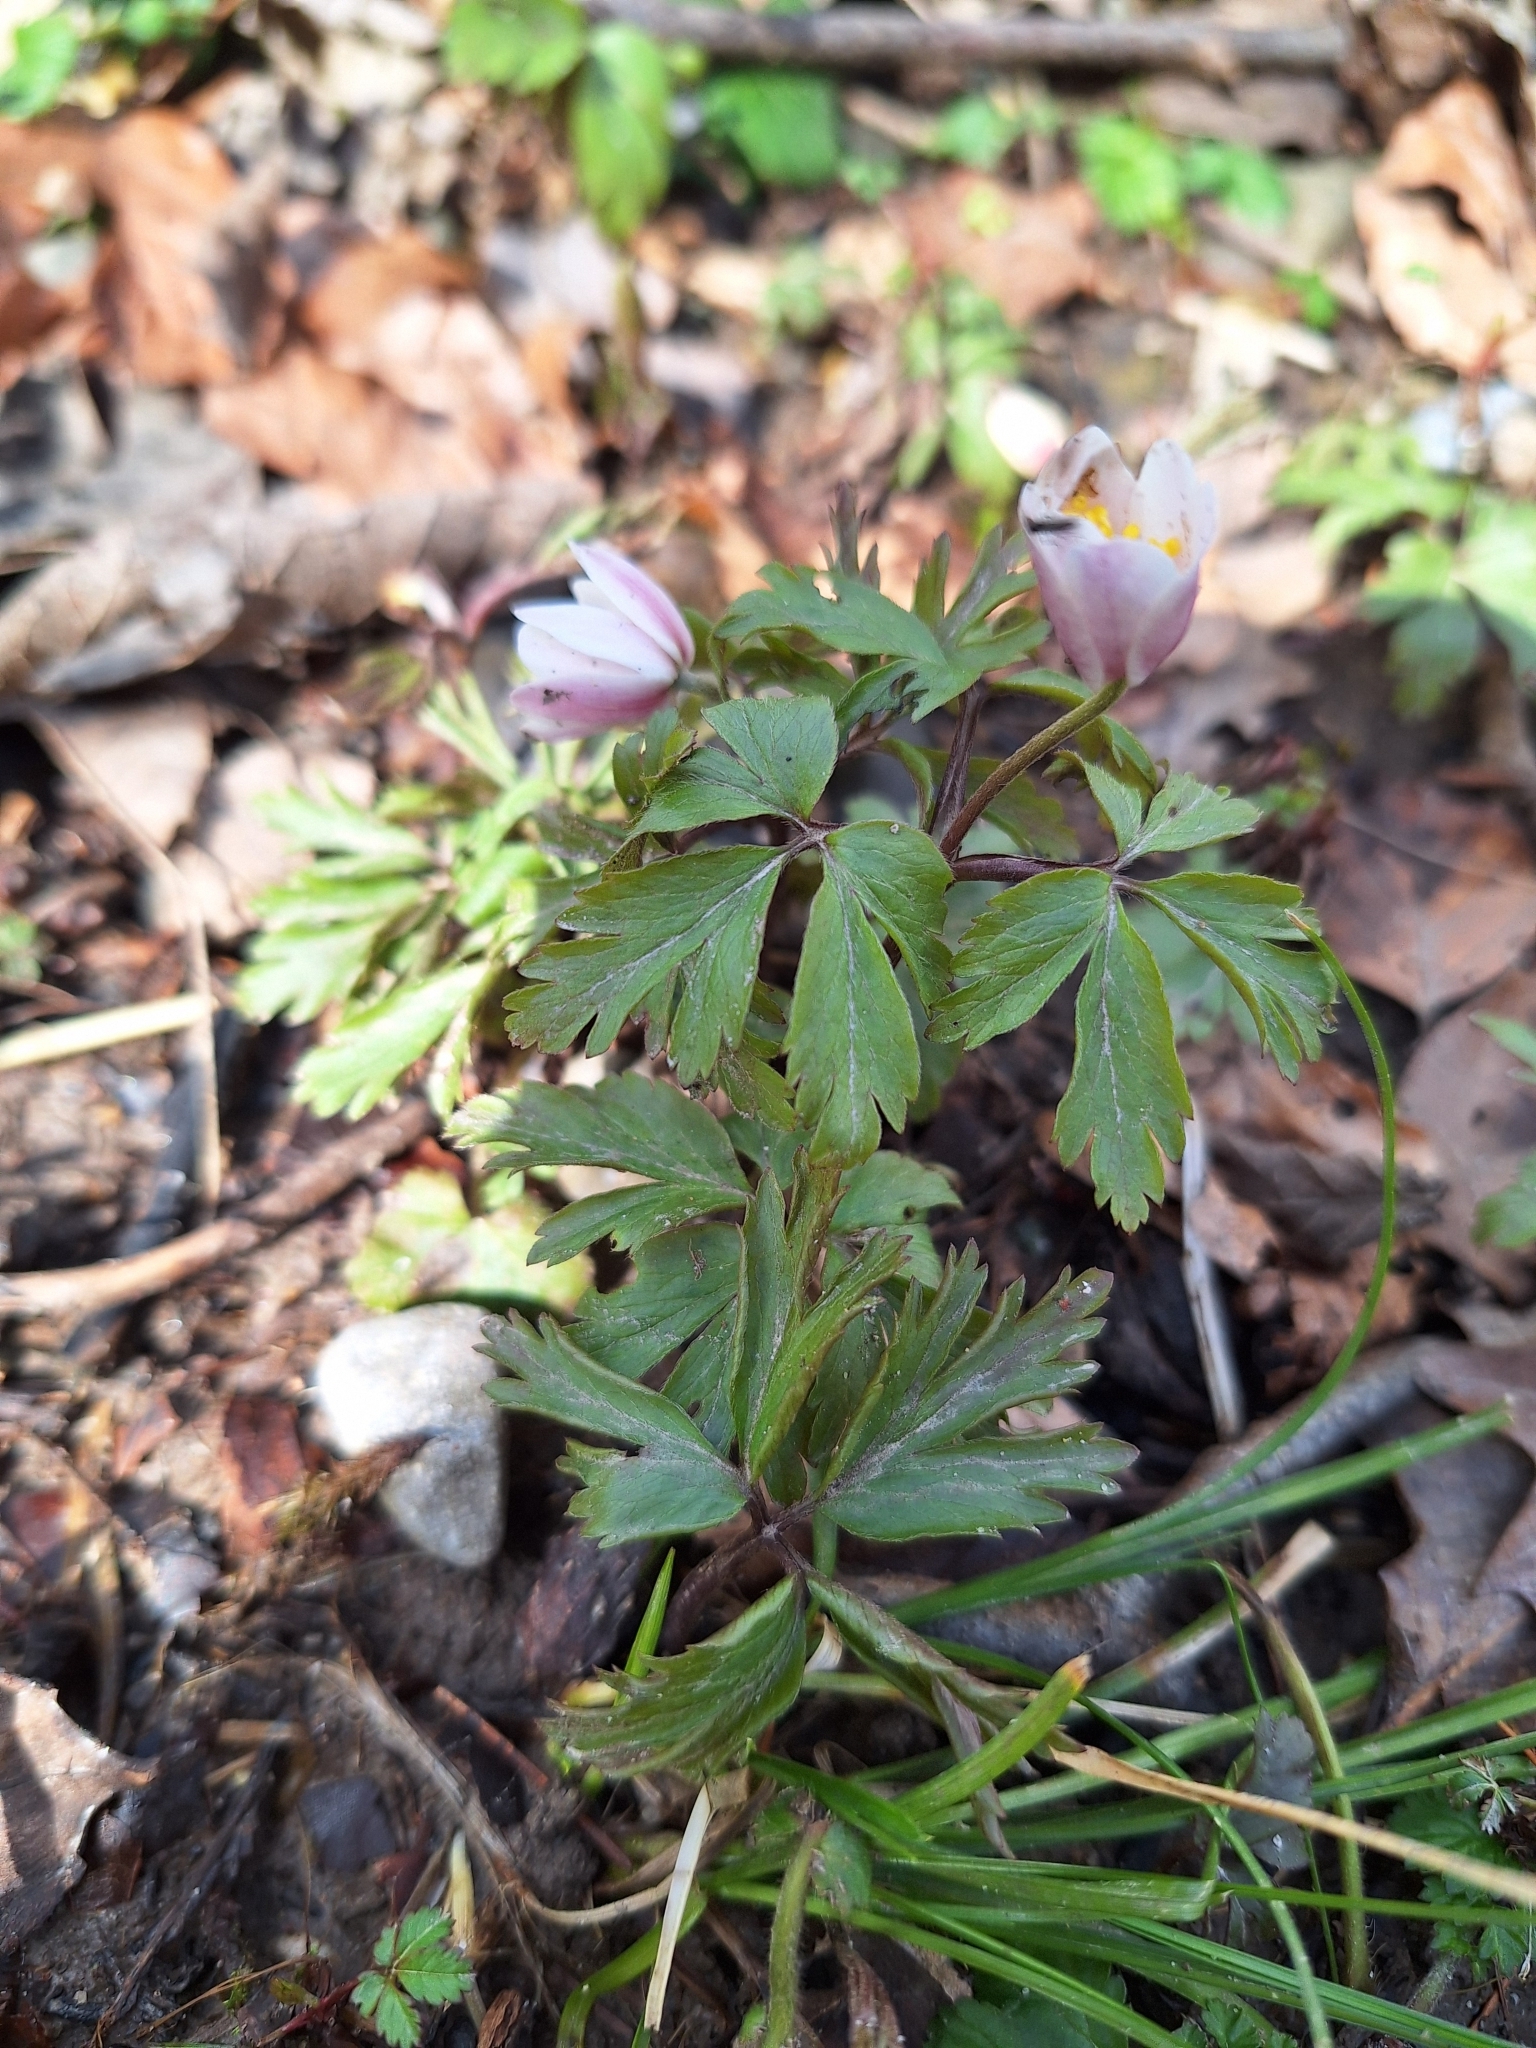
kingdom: Plantae
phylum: Tracheophyta
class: Magnoliopsida
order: Ranunculales
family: Ranunculaceae
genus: Anemone
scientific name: Anemone nemorosa
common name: Wood anemone
